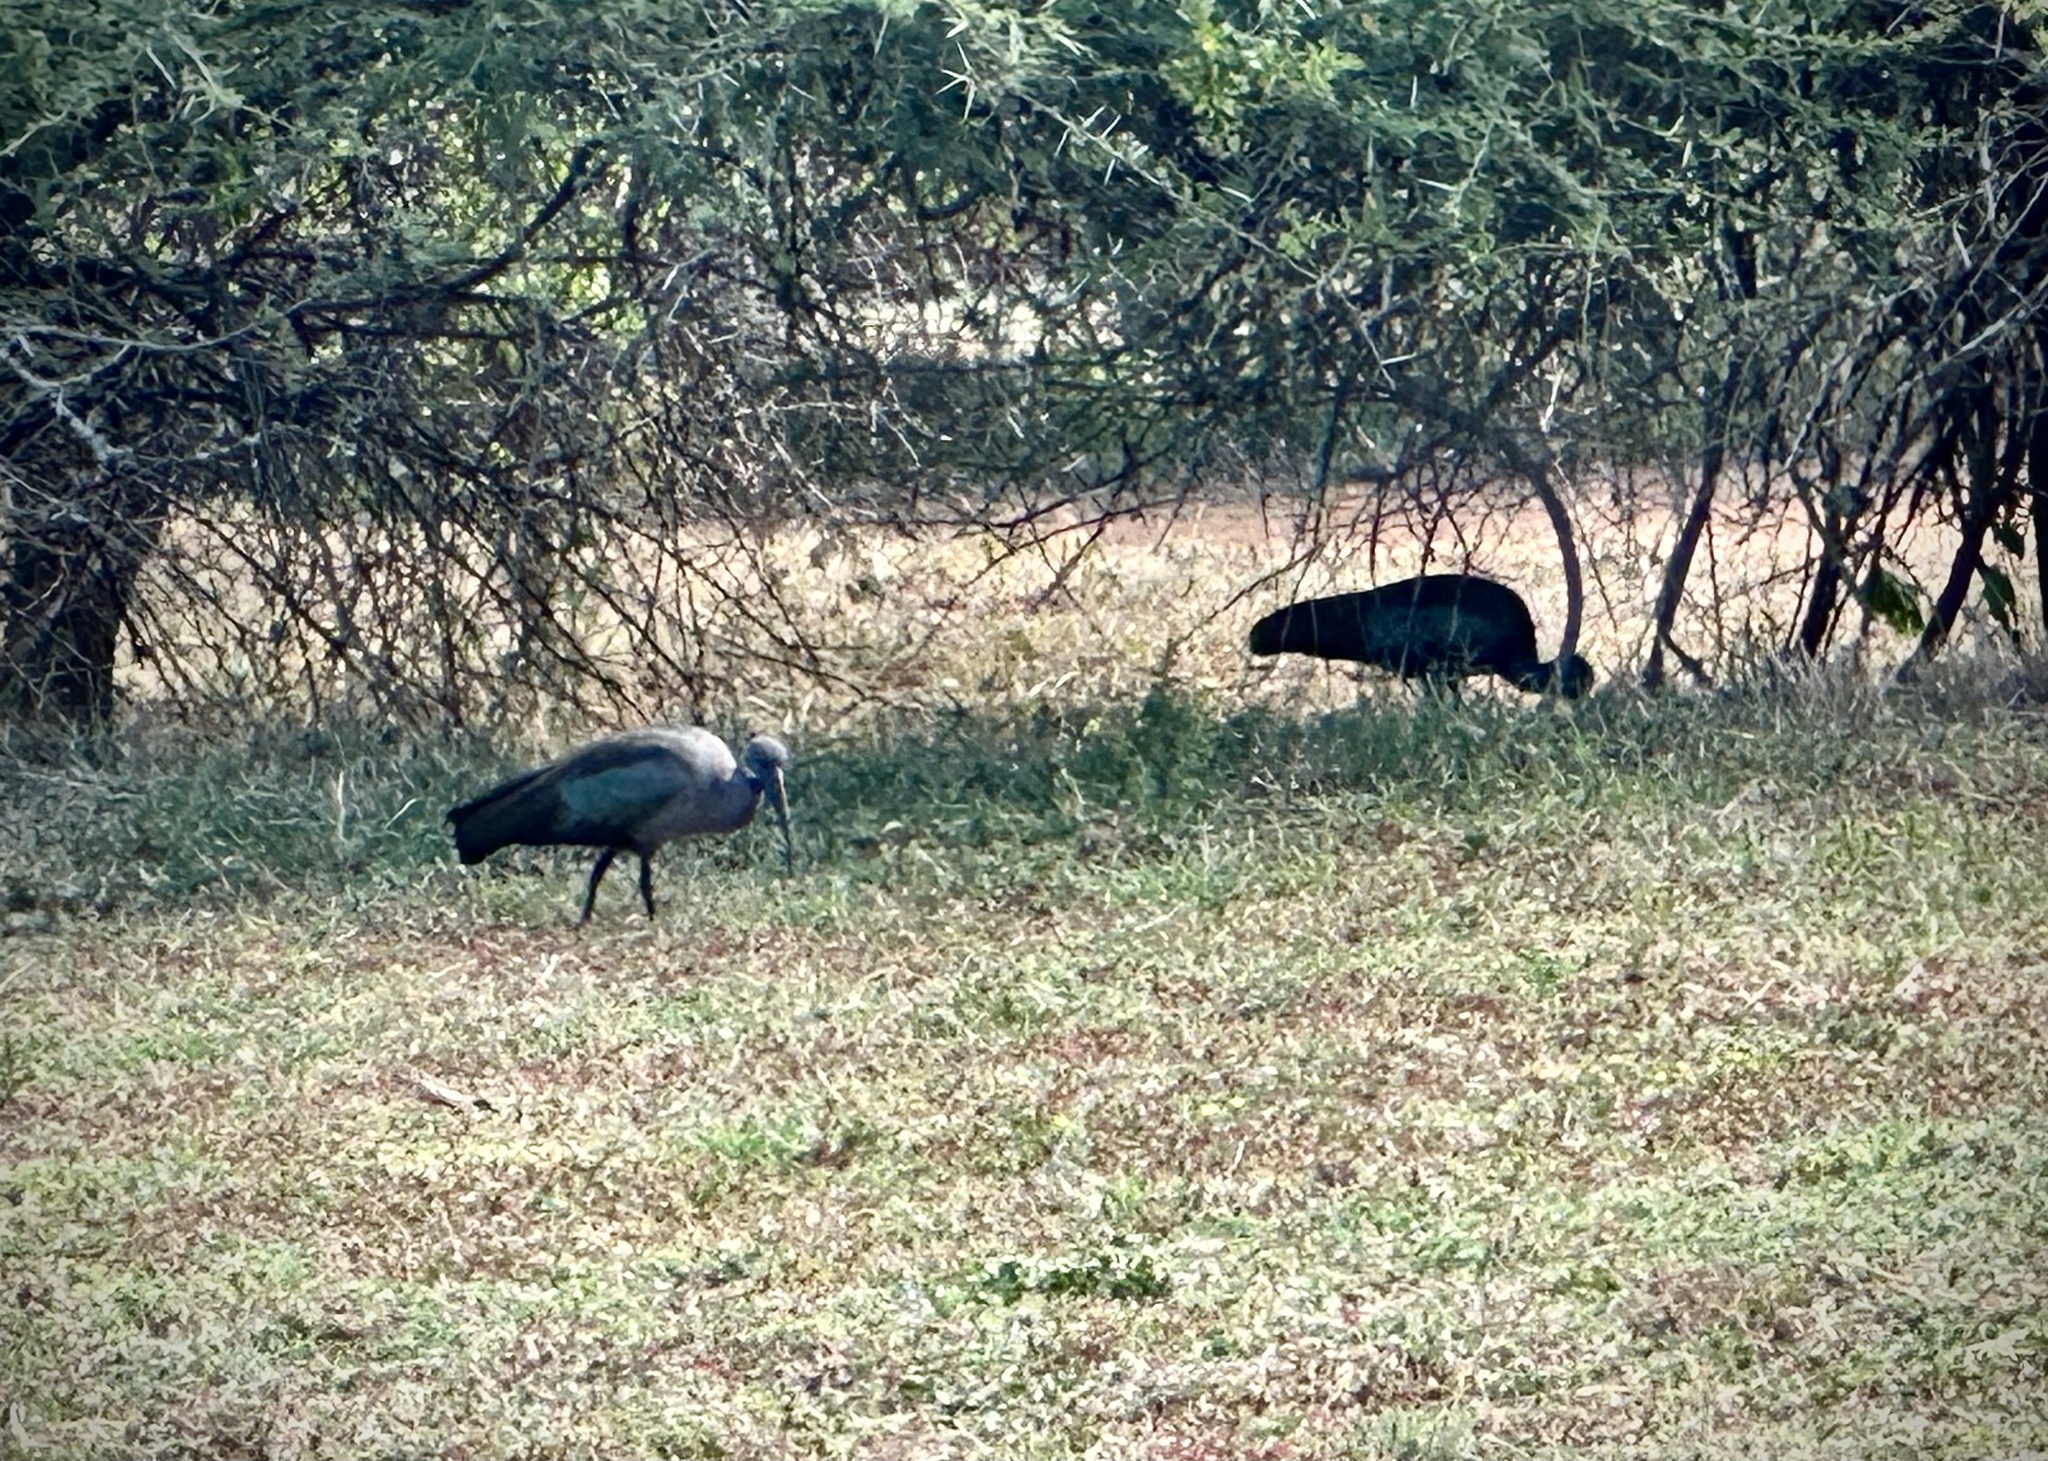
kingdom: Animalia
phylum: Chordata
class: Aves
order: Pelecaniformes
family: Threskiornithidae
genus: Bostrychia
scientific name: Bostrychia hagedash
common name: Hadada ibis
